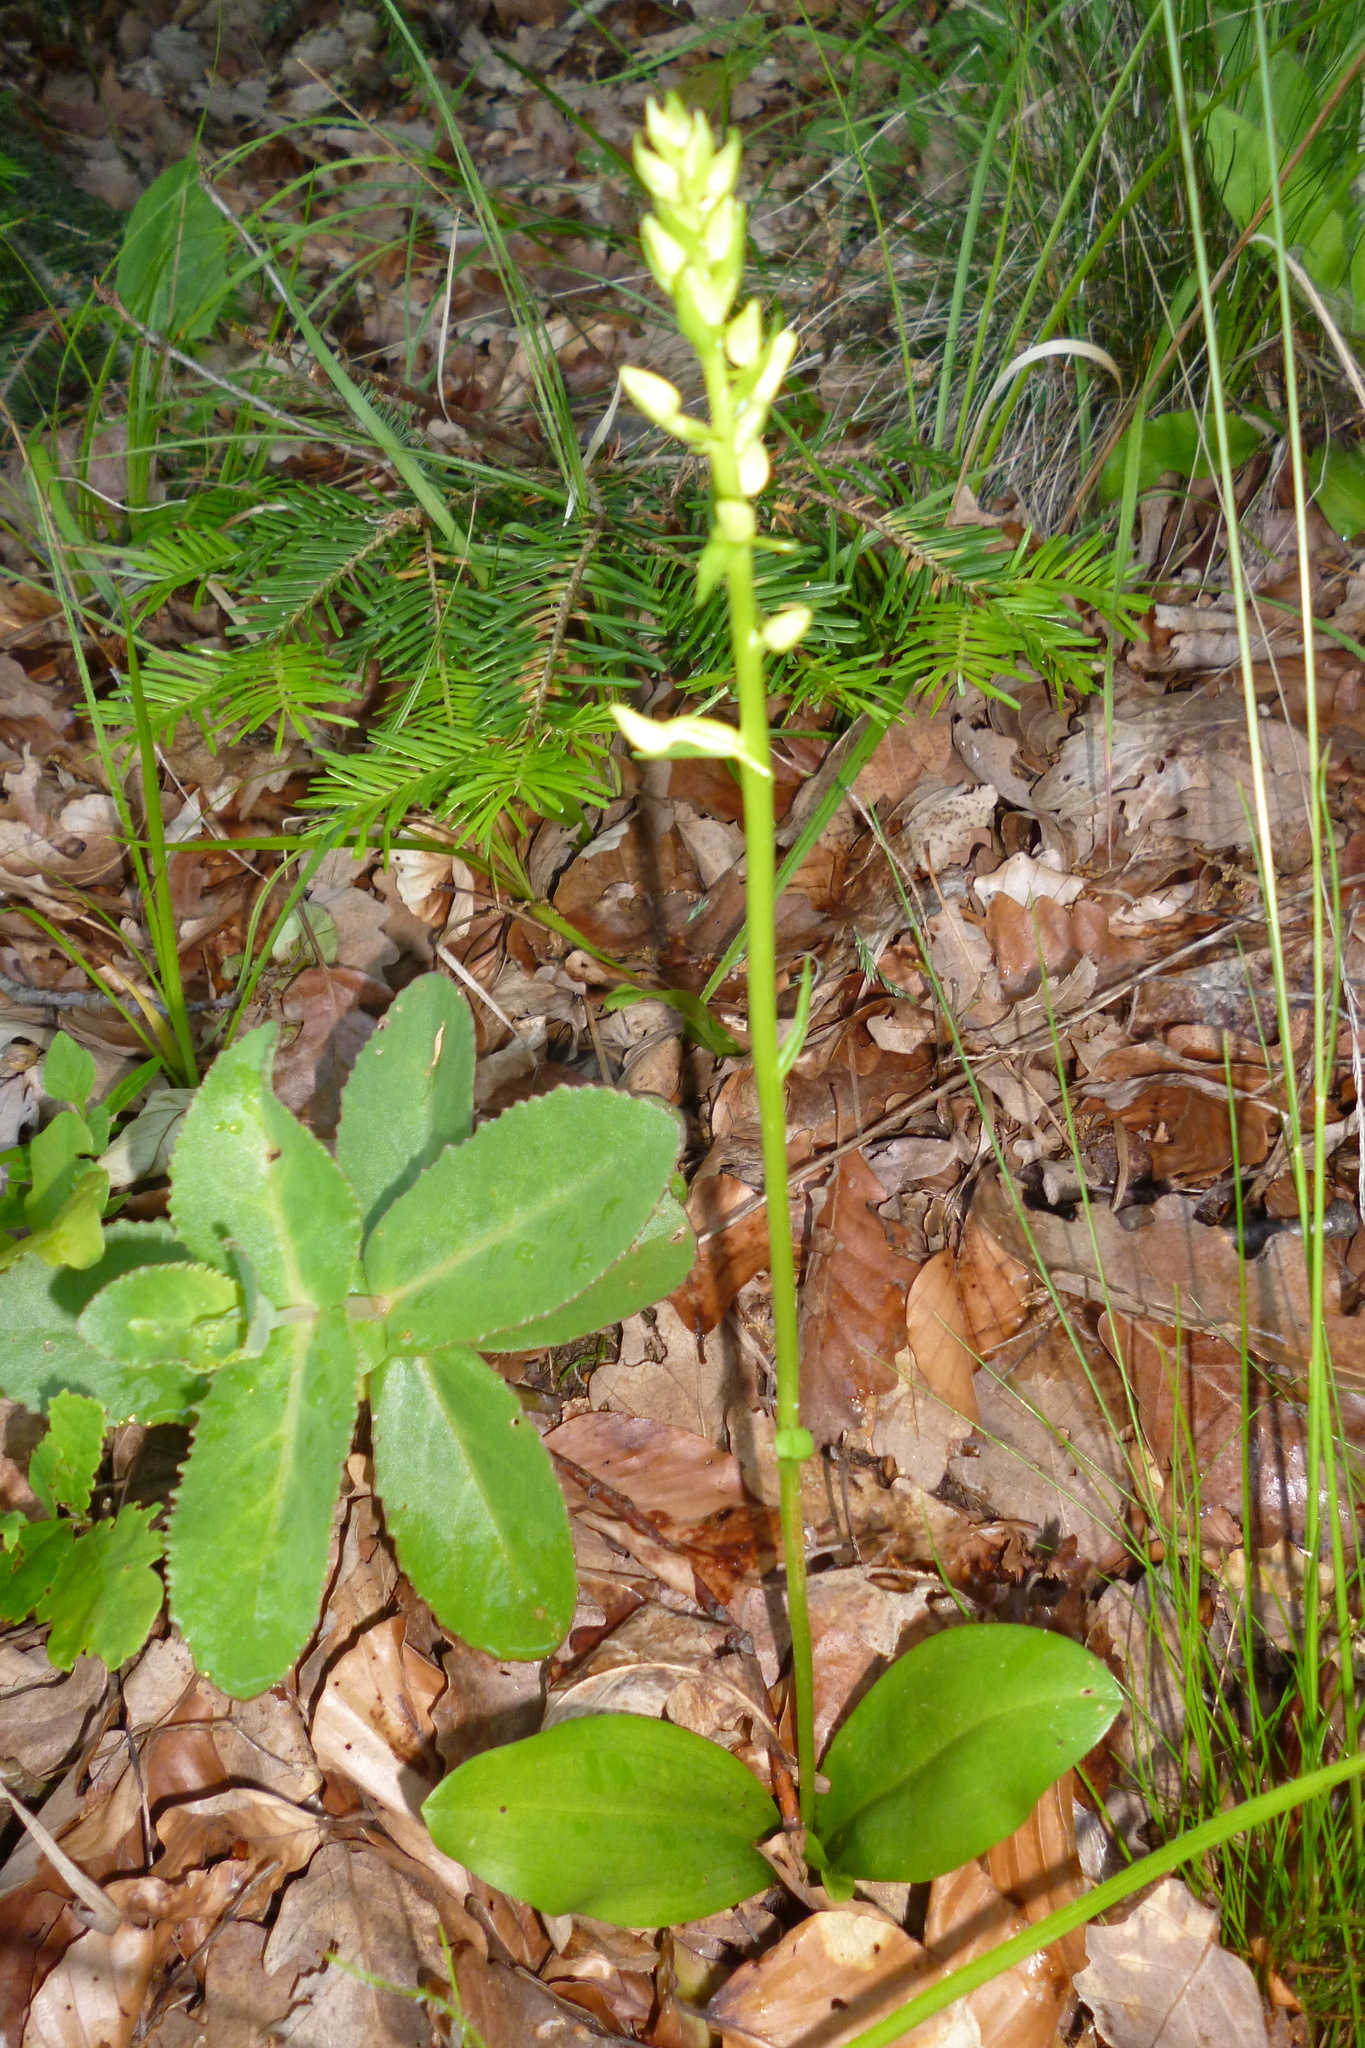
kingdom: Plantae
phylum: Tracheophyta
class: Liliopsida
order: Asparagales
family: Orchidaceae
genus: Platanthera
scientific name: Platanthera bifolia
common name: Lesser butterfly-orchid
